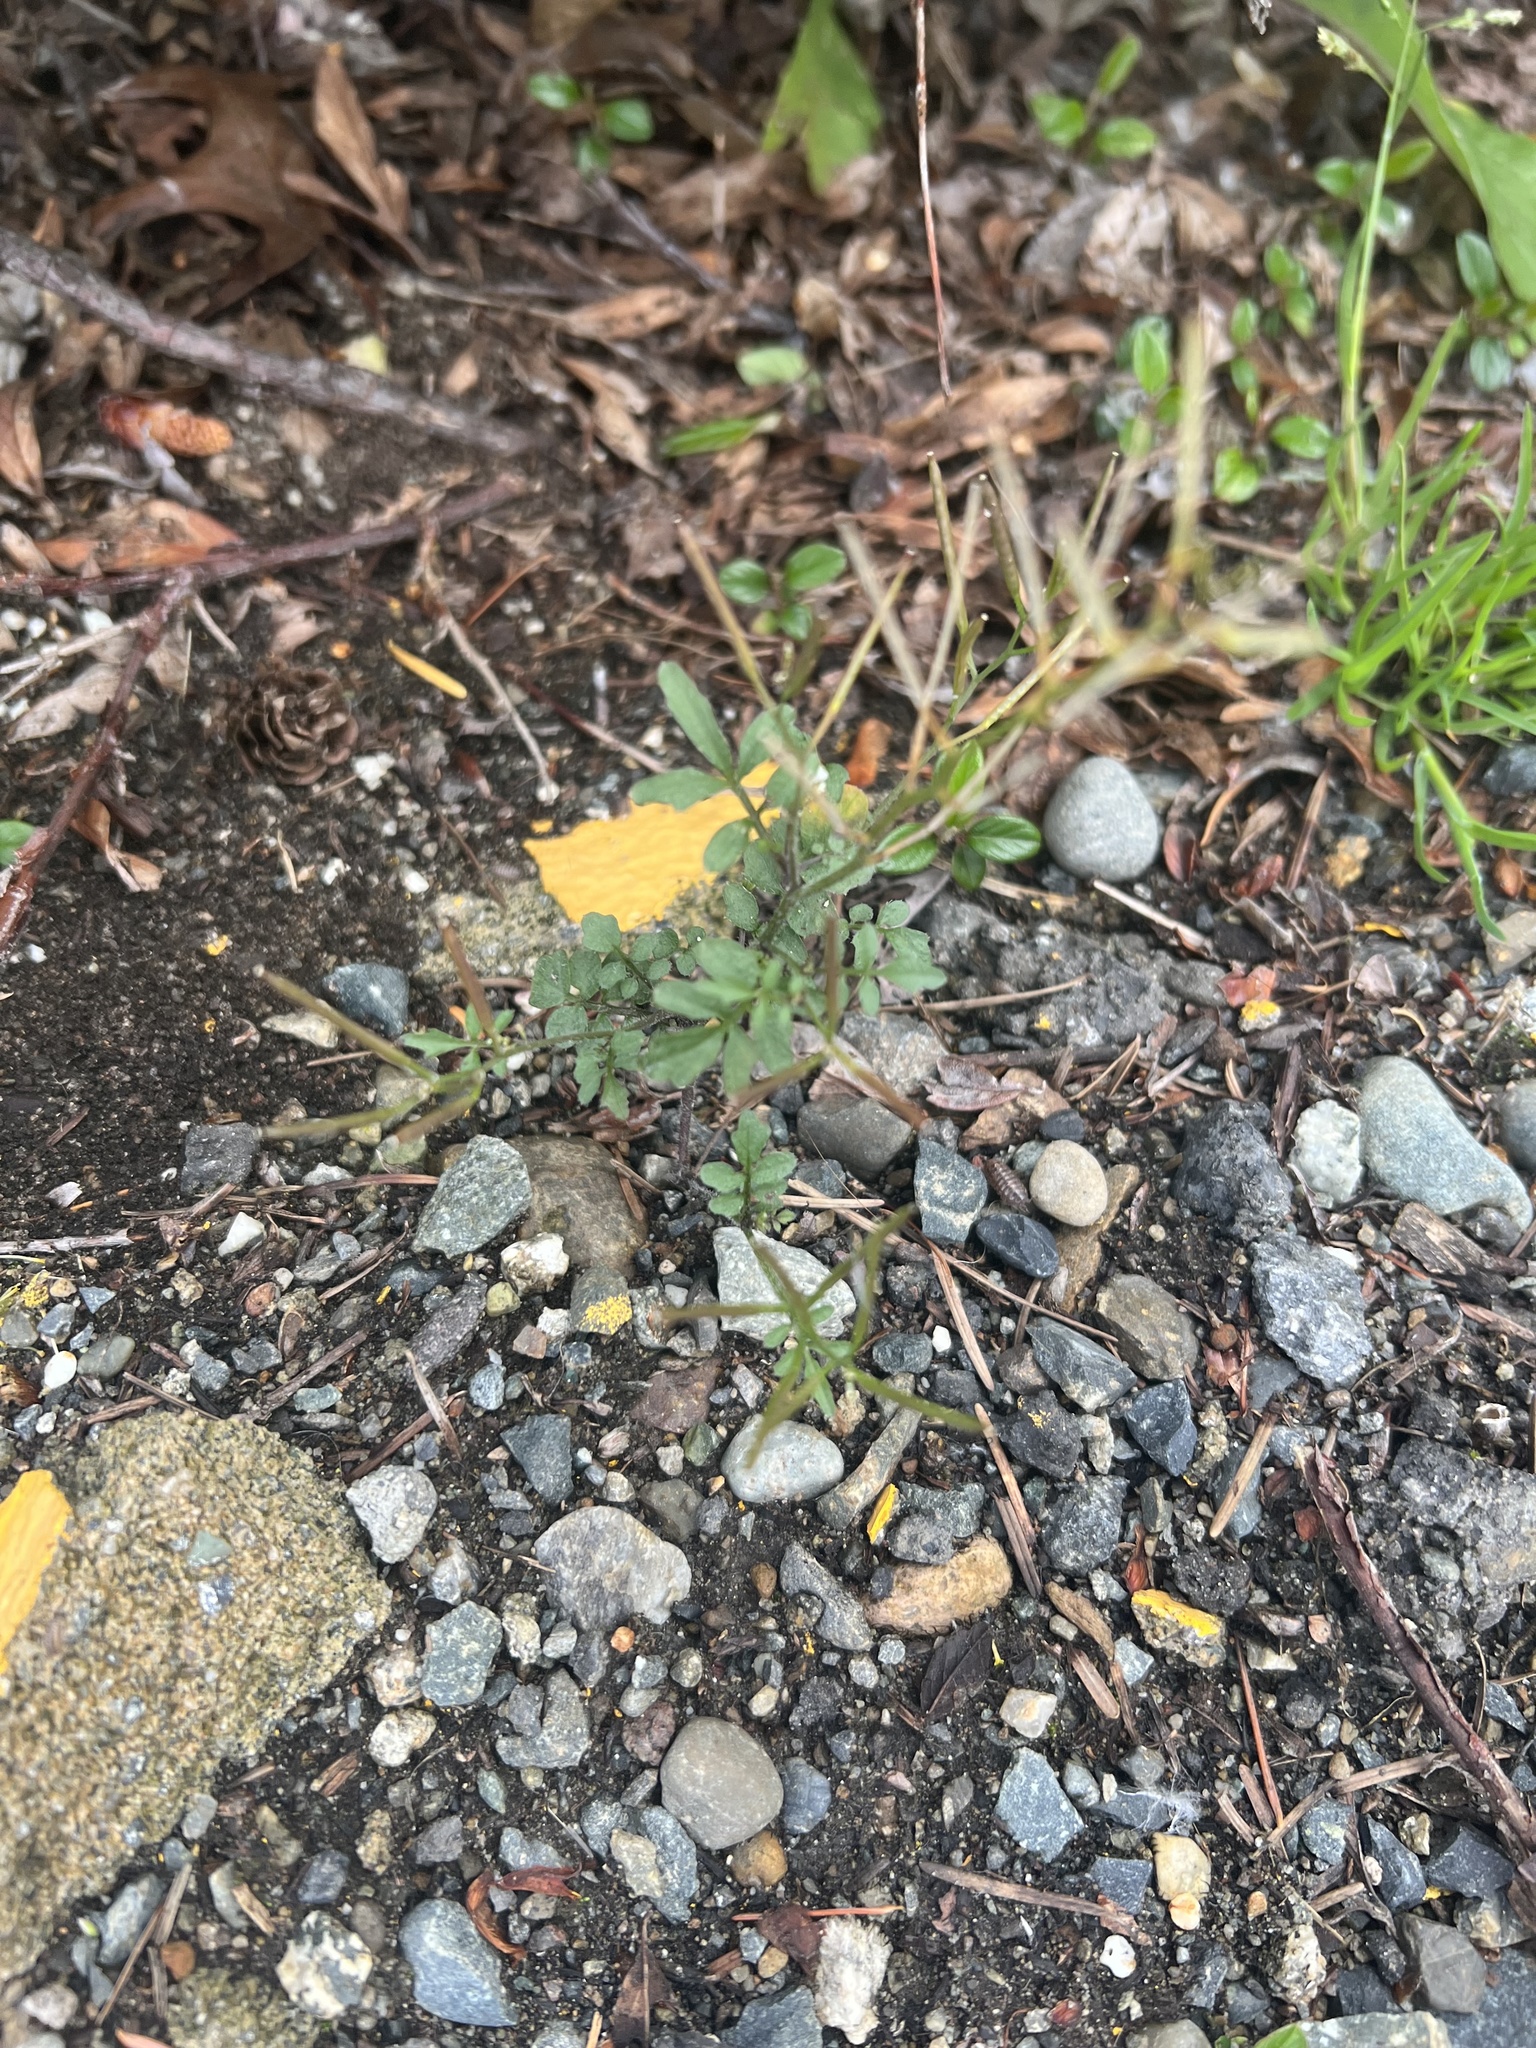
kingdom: Plantae
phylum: Tracheophyta
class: Magnoliopsida
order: Brassicales
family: Brassicaceae
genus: Cardamine
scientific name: Cardamine flexuosa
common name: Woodland bittercress
